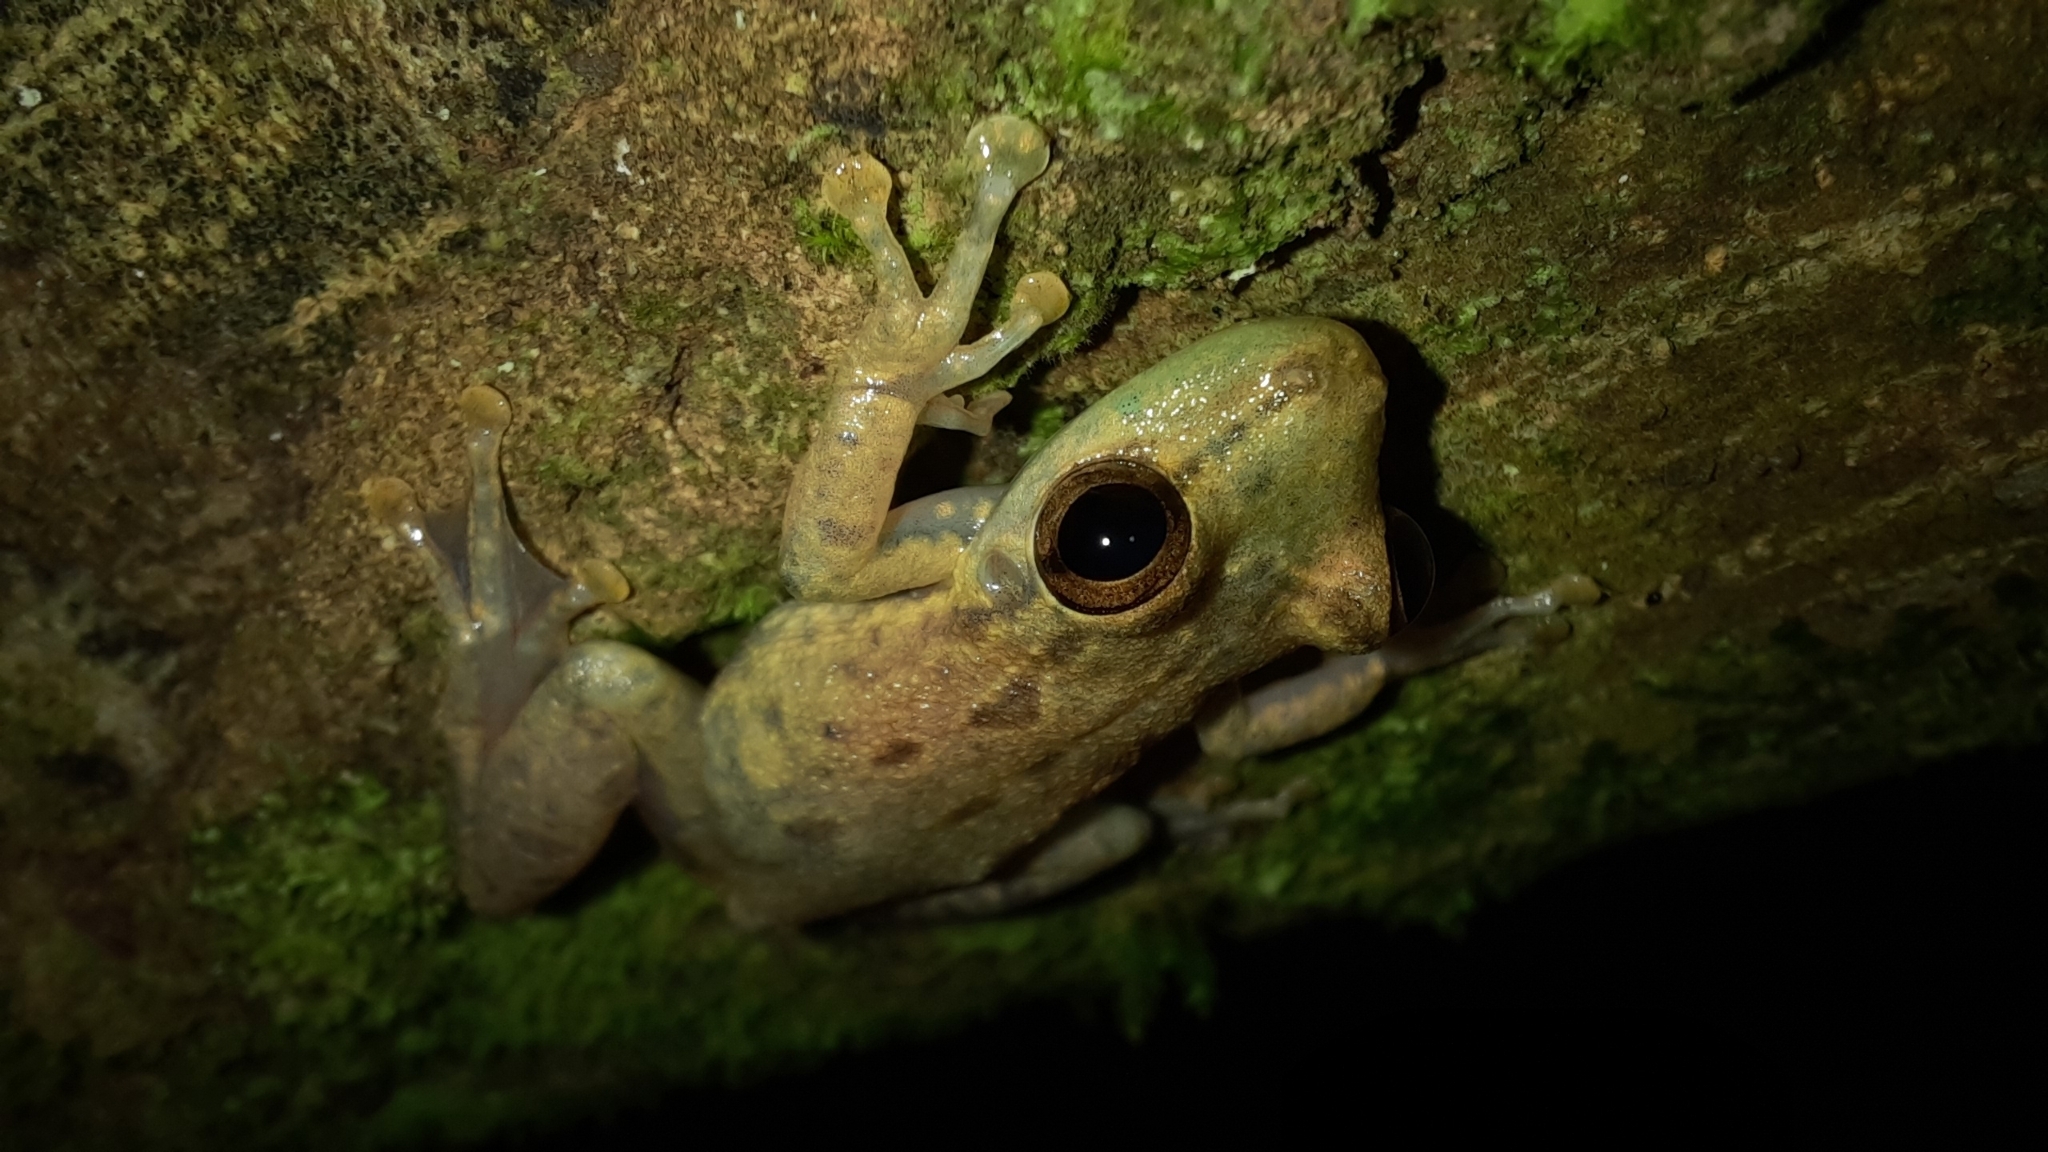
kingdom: Animalia
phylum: Chordata
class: Amphibia
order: Anura
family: Hylidae
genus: Scinax
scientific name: Scinax elaeochroa
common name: Sipurio snouted treefrog
